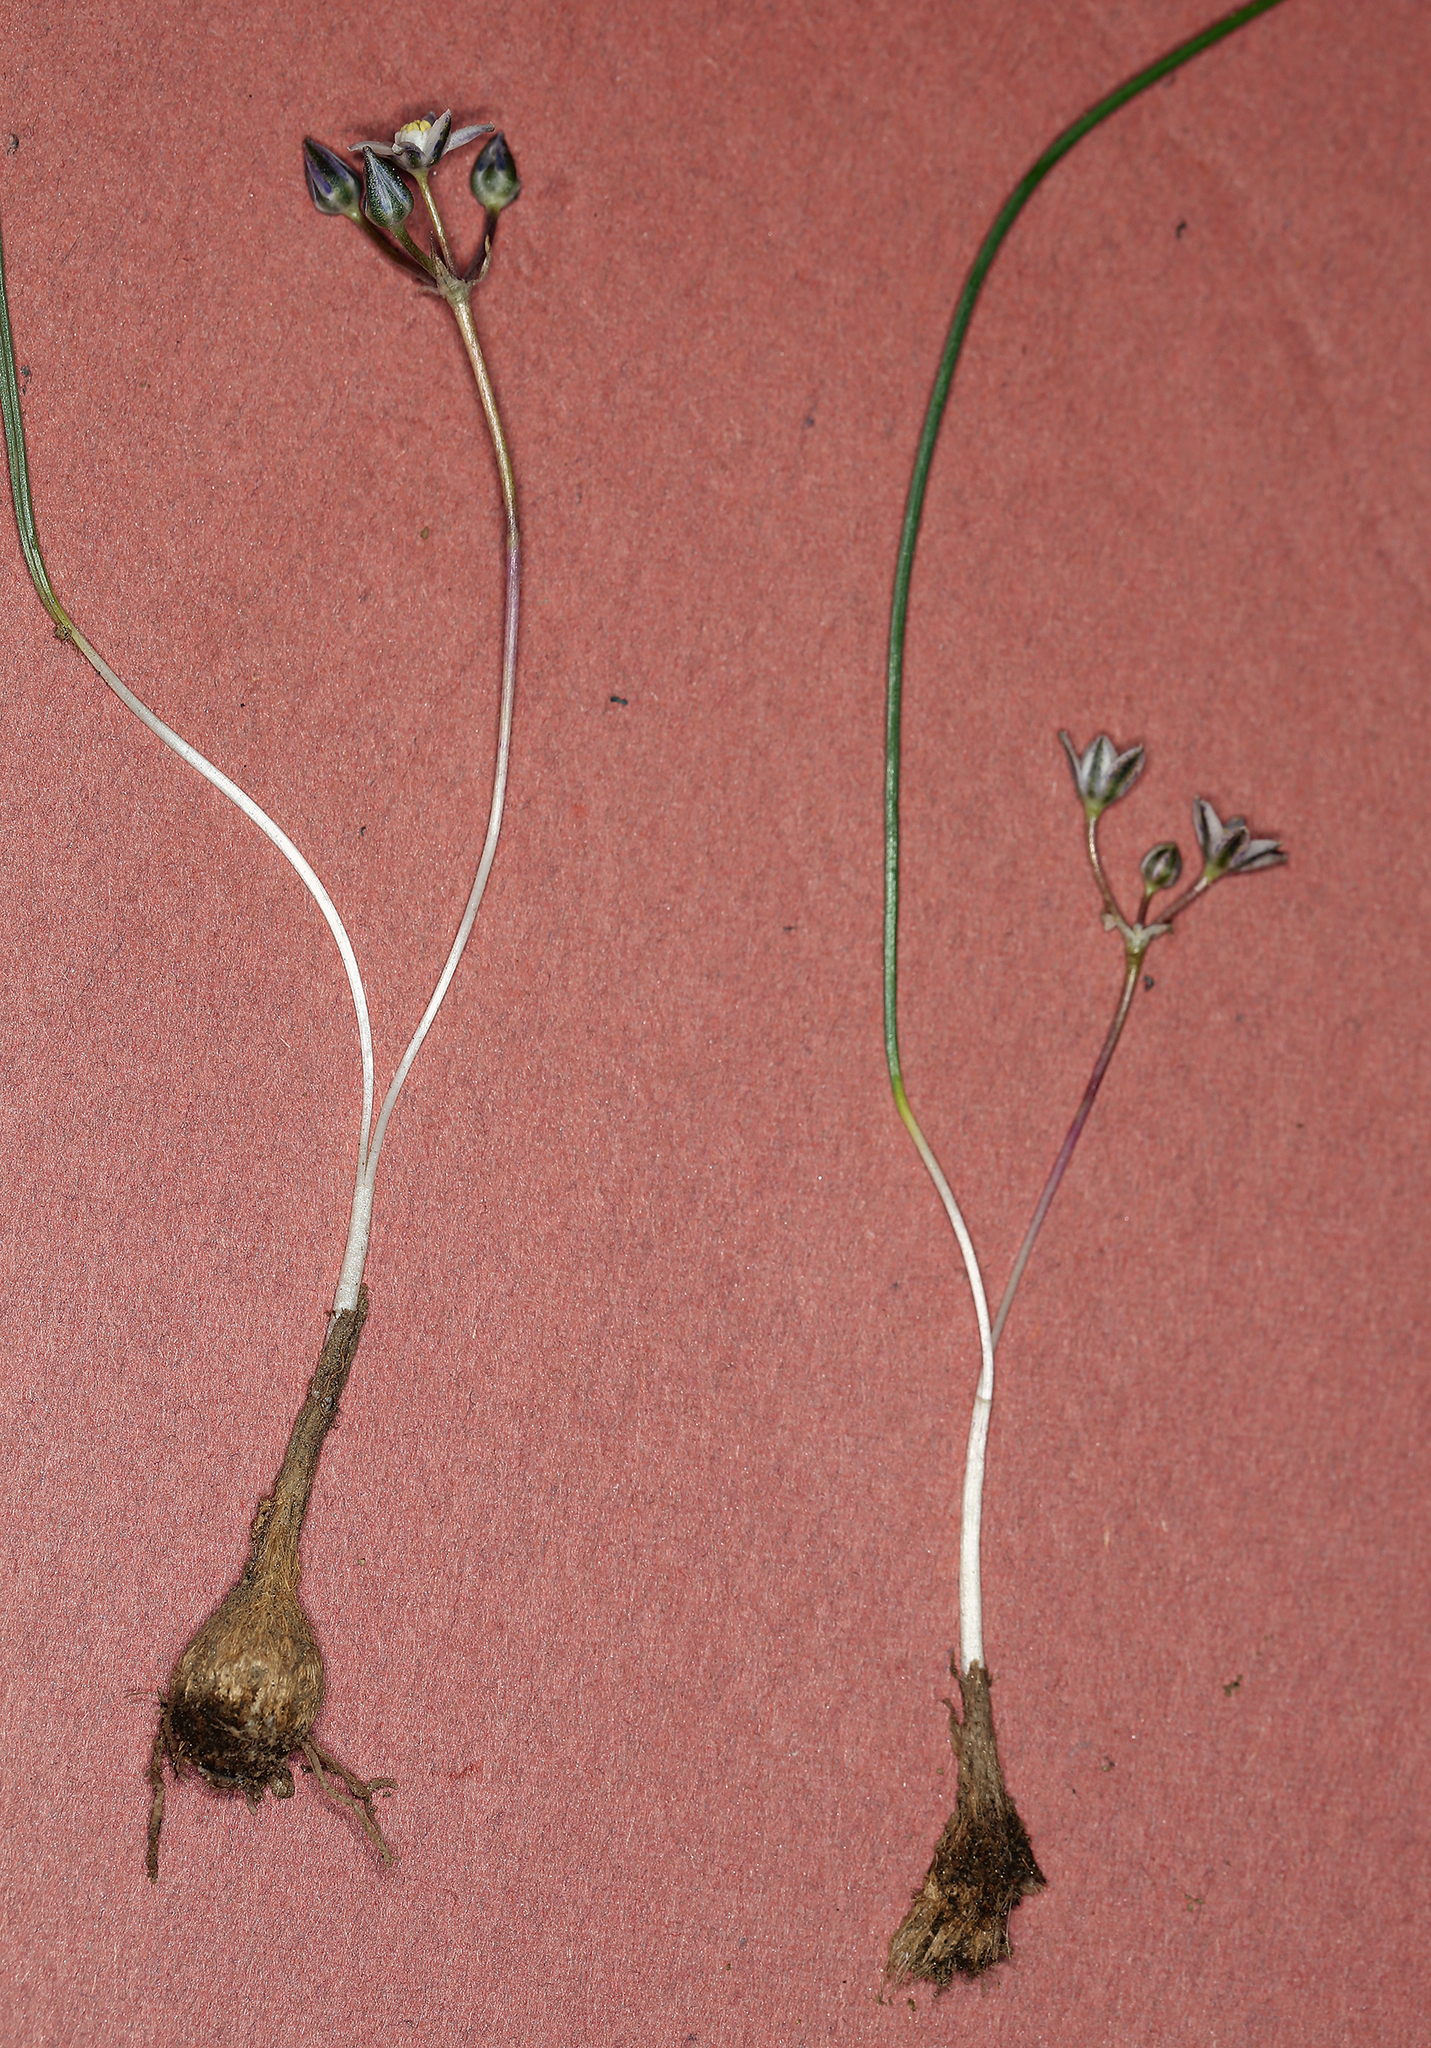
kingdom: Plantae
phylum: Tracheophyta
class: Liliopsida
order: Asparagales
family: Asparagaceae
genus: Muilla
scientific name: Muilla coronata
